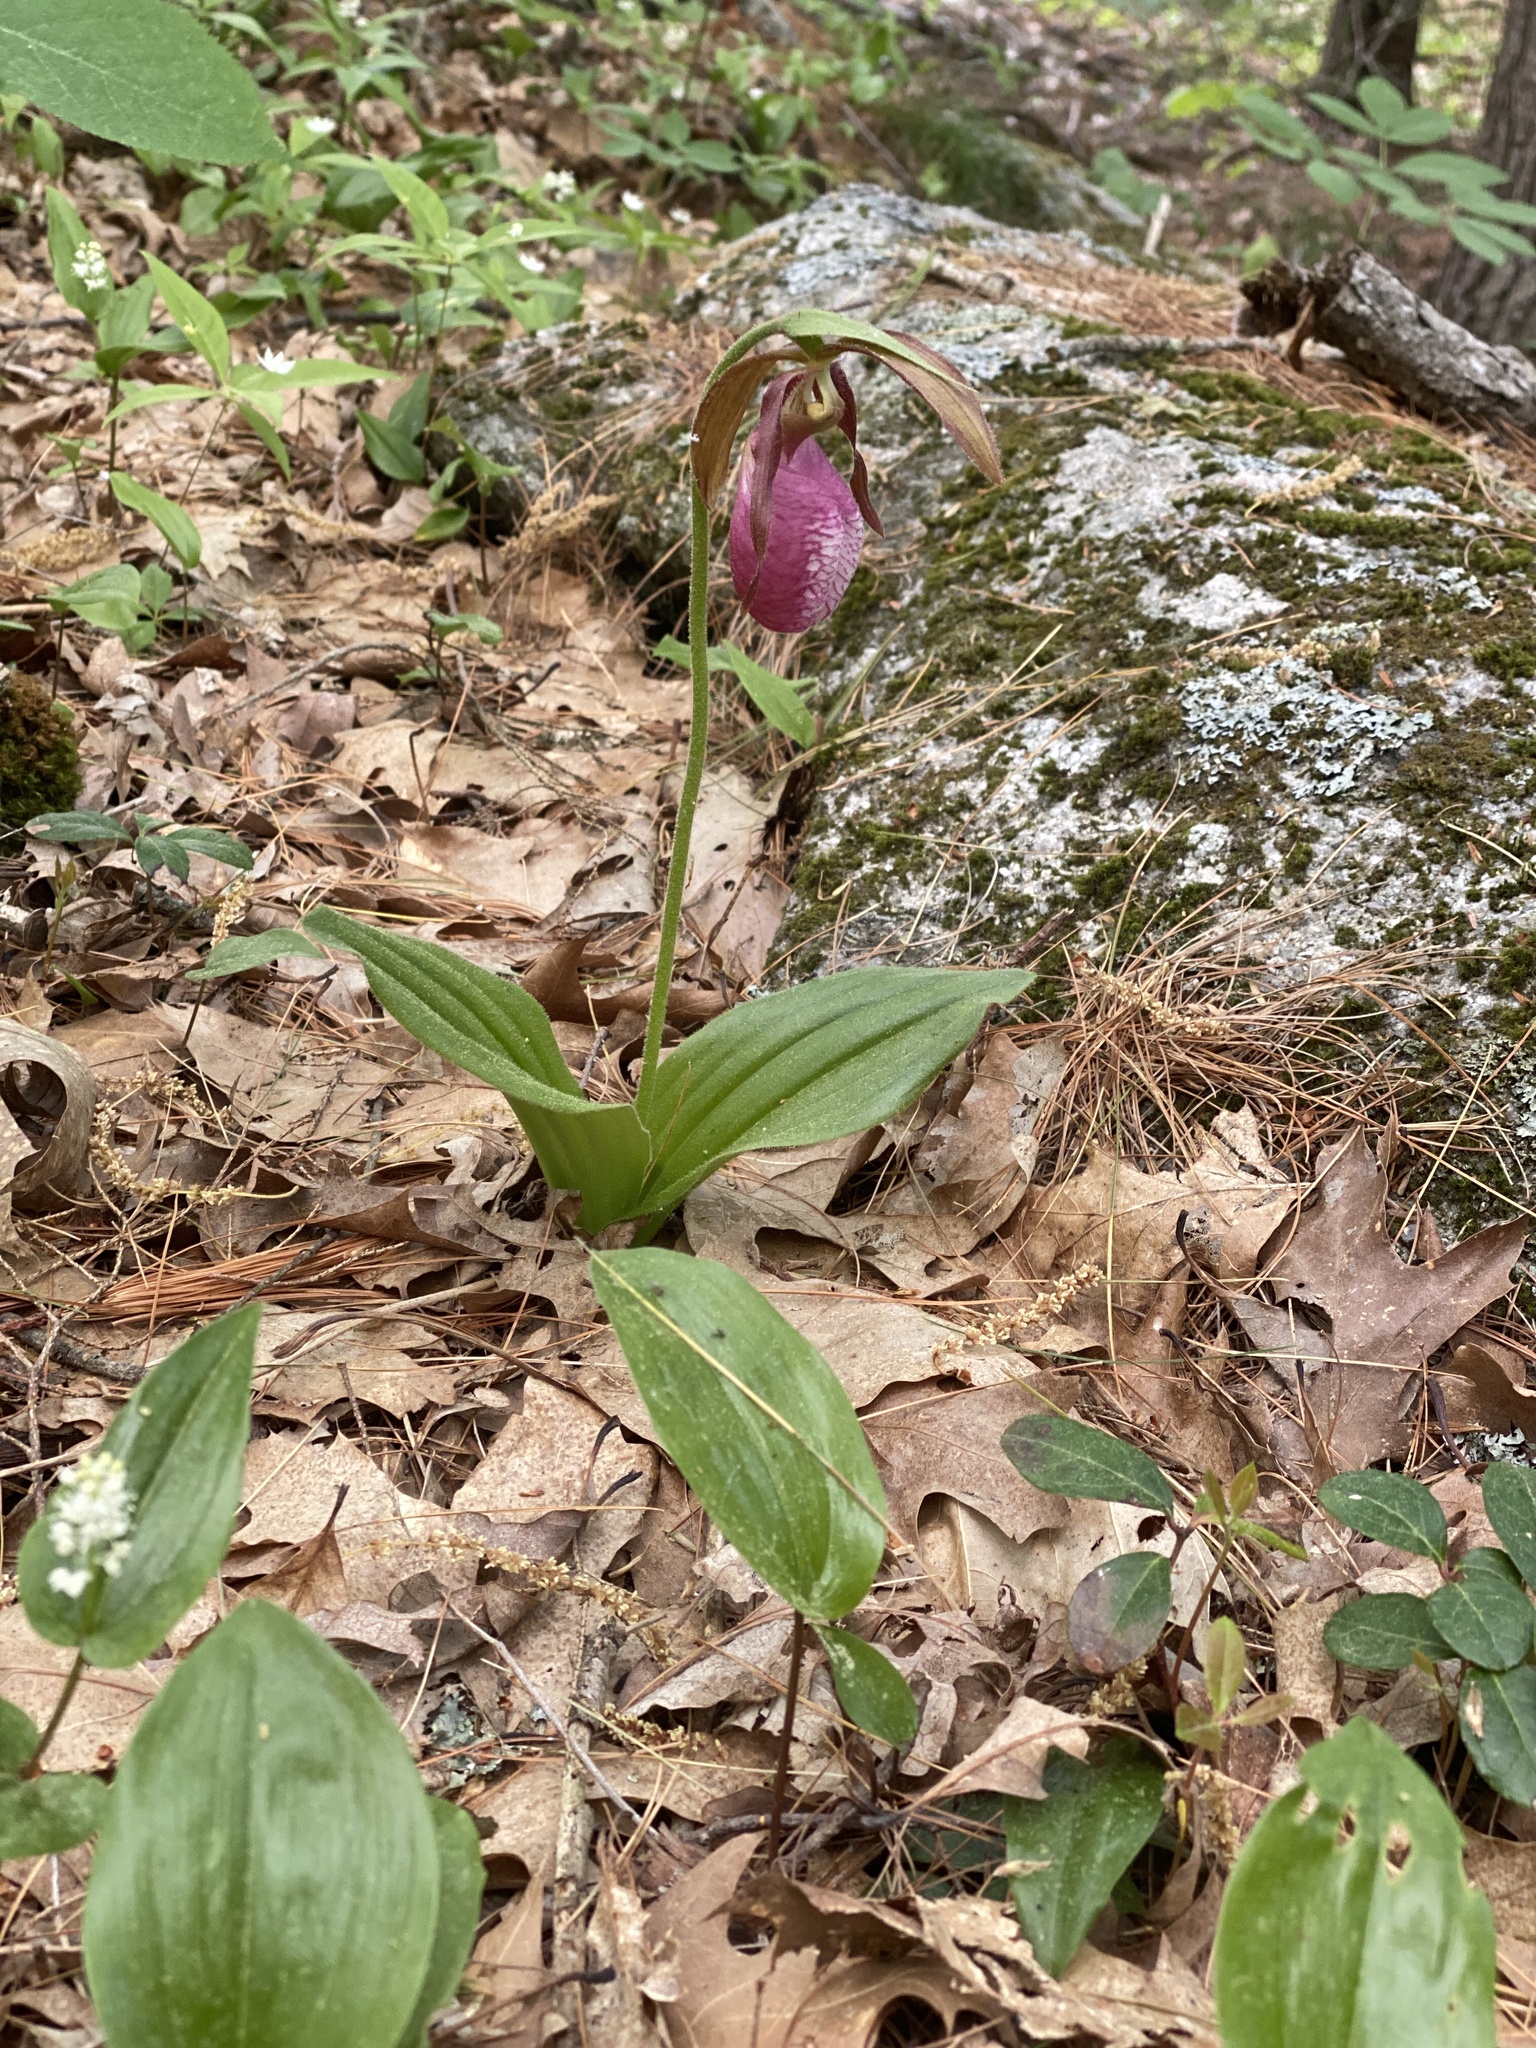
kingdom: Plantae
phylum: Tracheophyta
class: Liliopsida
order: Asparagales
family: Orchidaceae
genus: Cypripedium
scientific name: Cypripedium acaule
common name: Pink lady's-slipper
